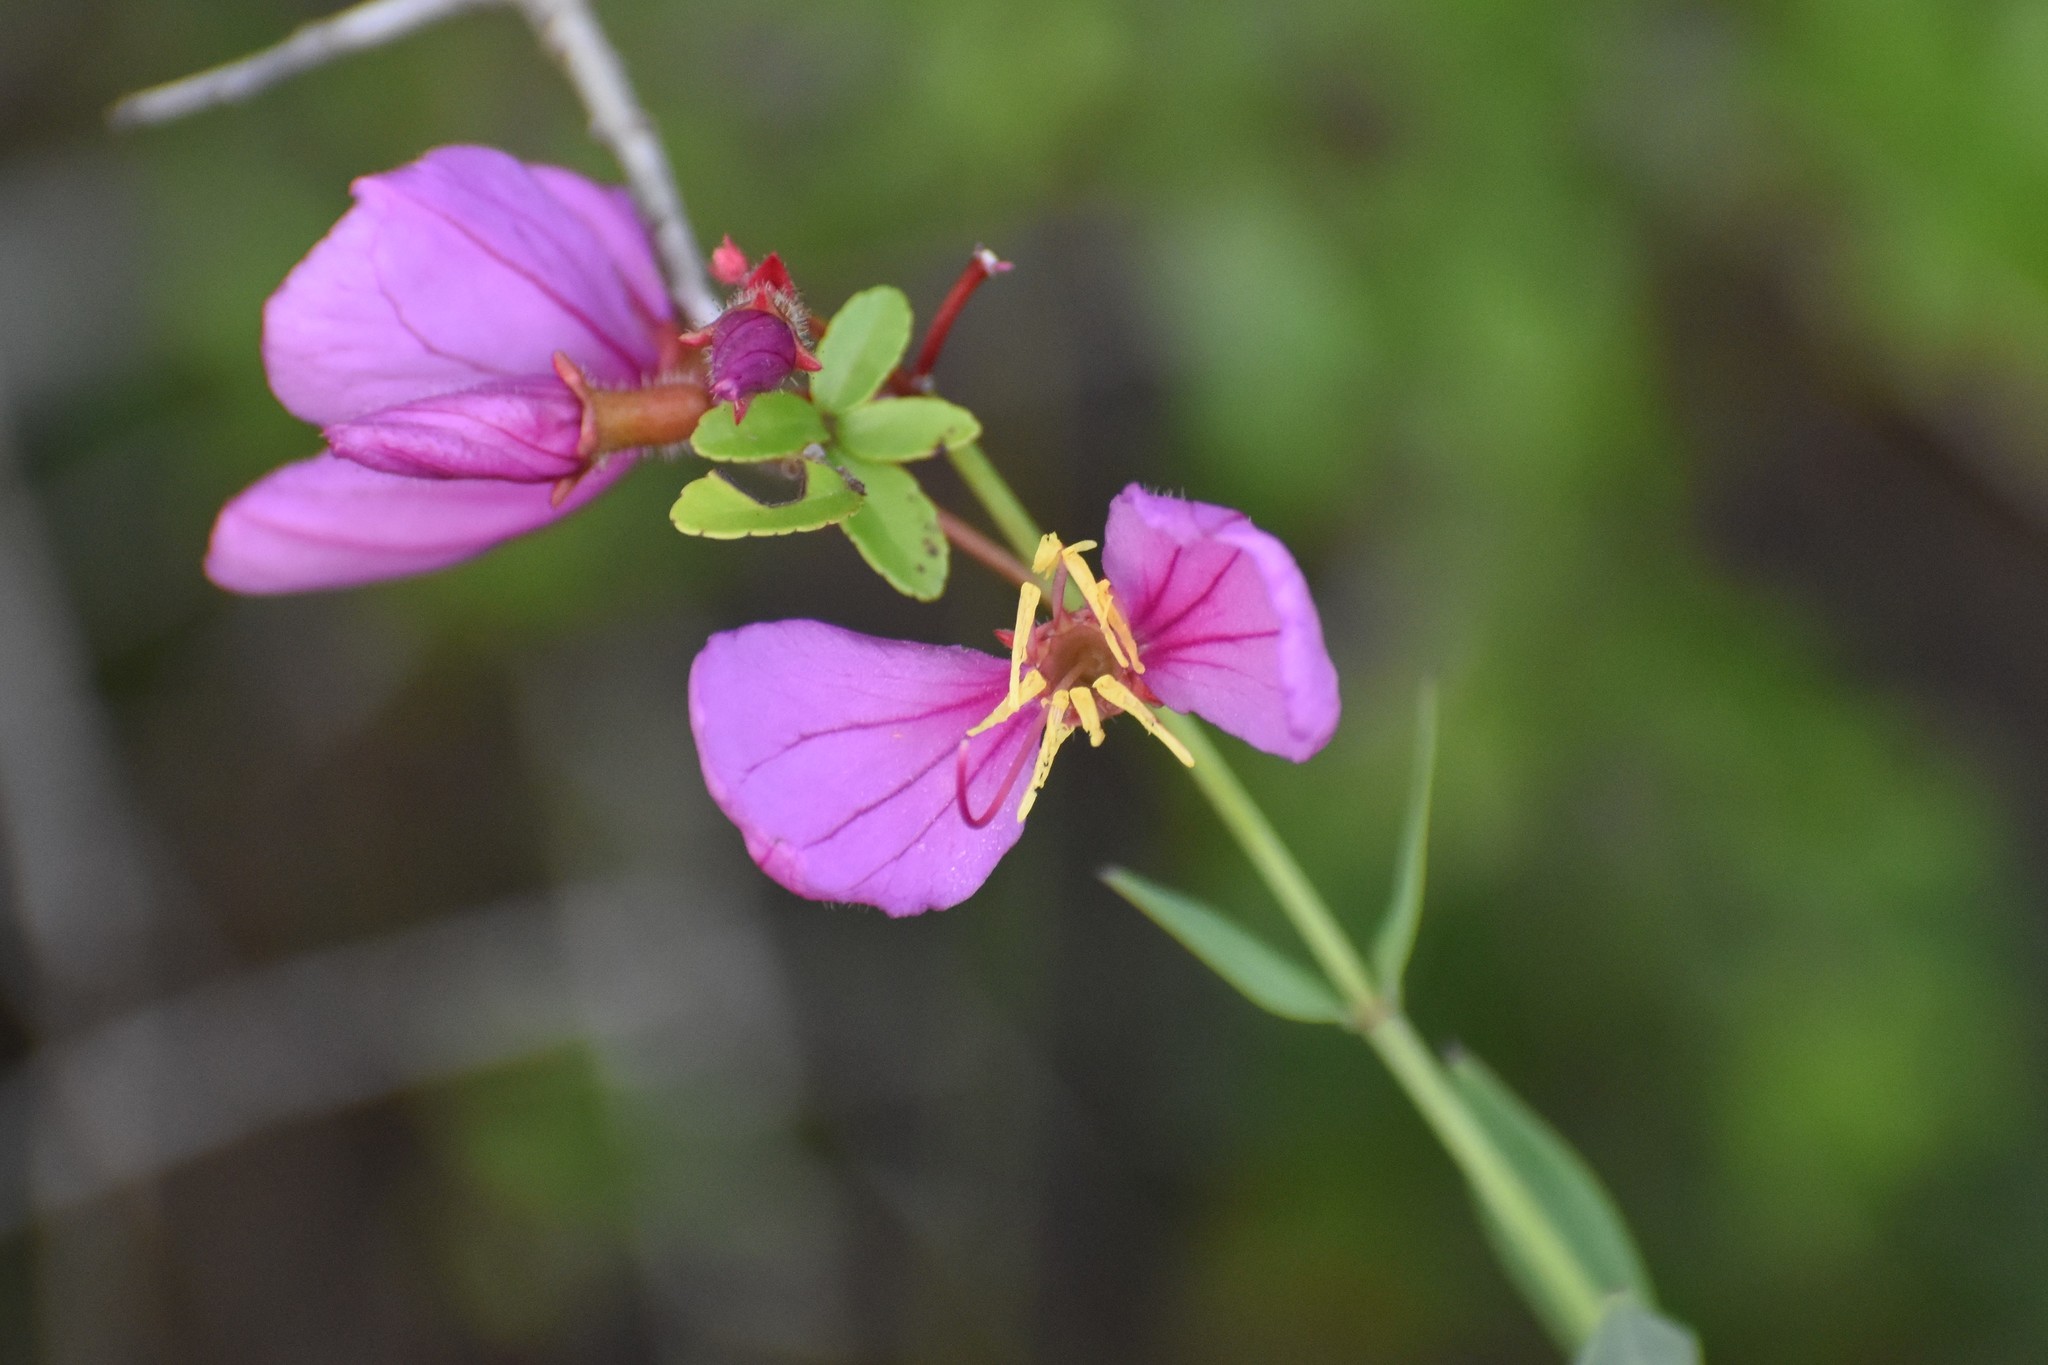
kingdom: Plantae
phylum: Tracheophyta
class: Magnoliopsida
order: Myrtales
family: Melastomataceae
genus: Rhexia
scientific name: Rhexia alifanus
